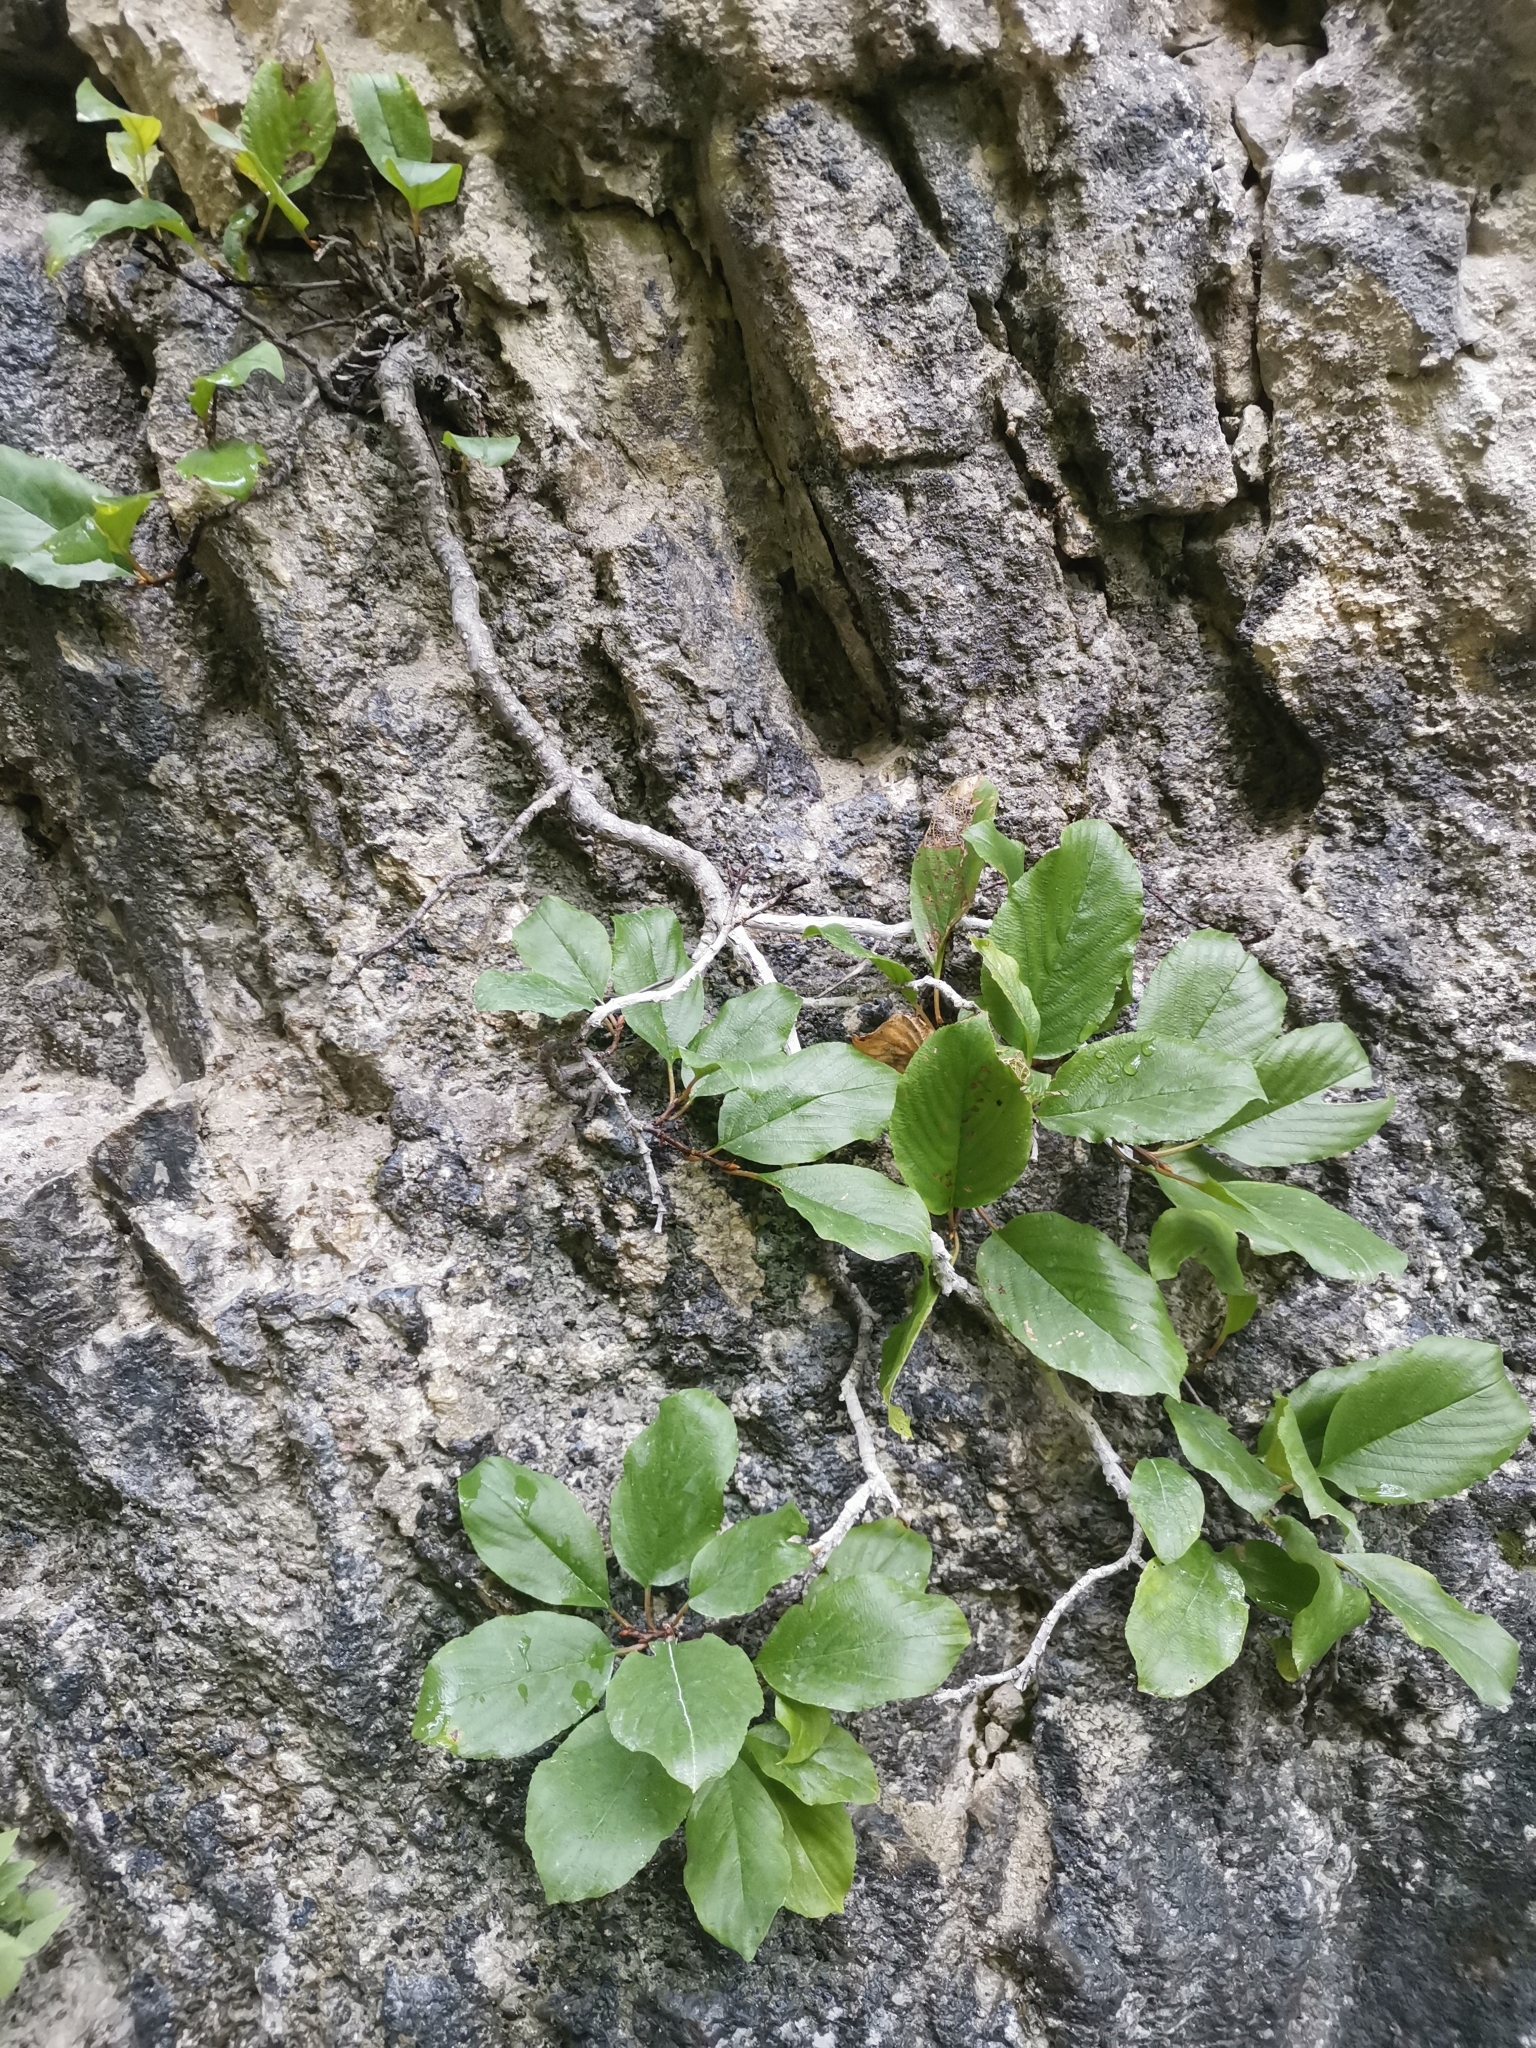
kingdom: Plantae
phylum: Tracheophyta
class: Magnoliopsida
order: Rosales
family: Rhamnaceae
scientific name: Rhamnaceae
